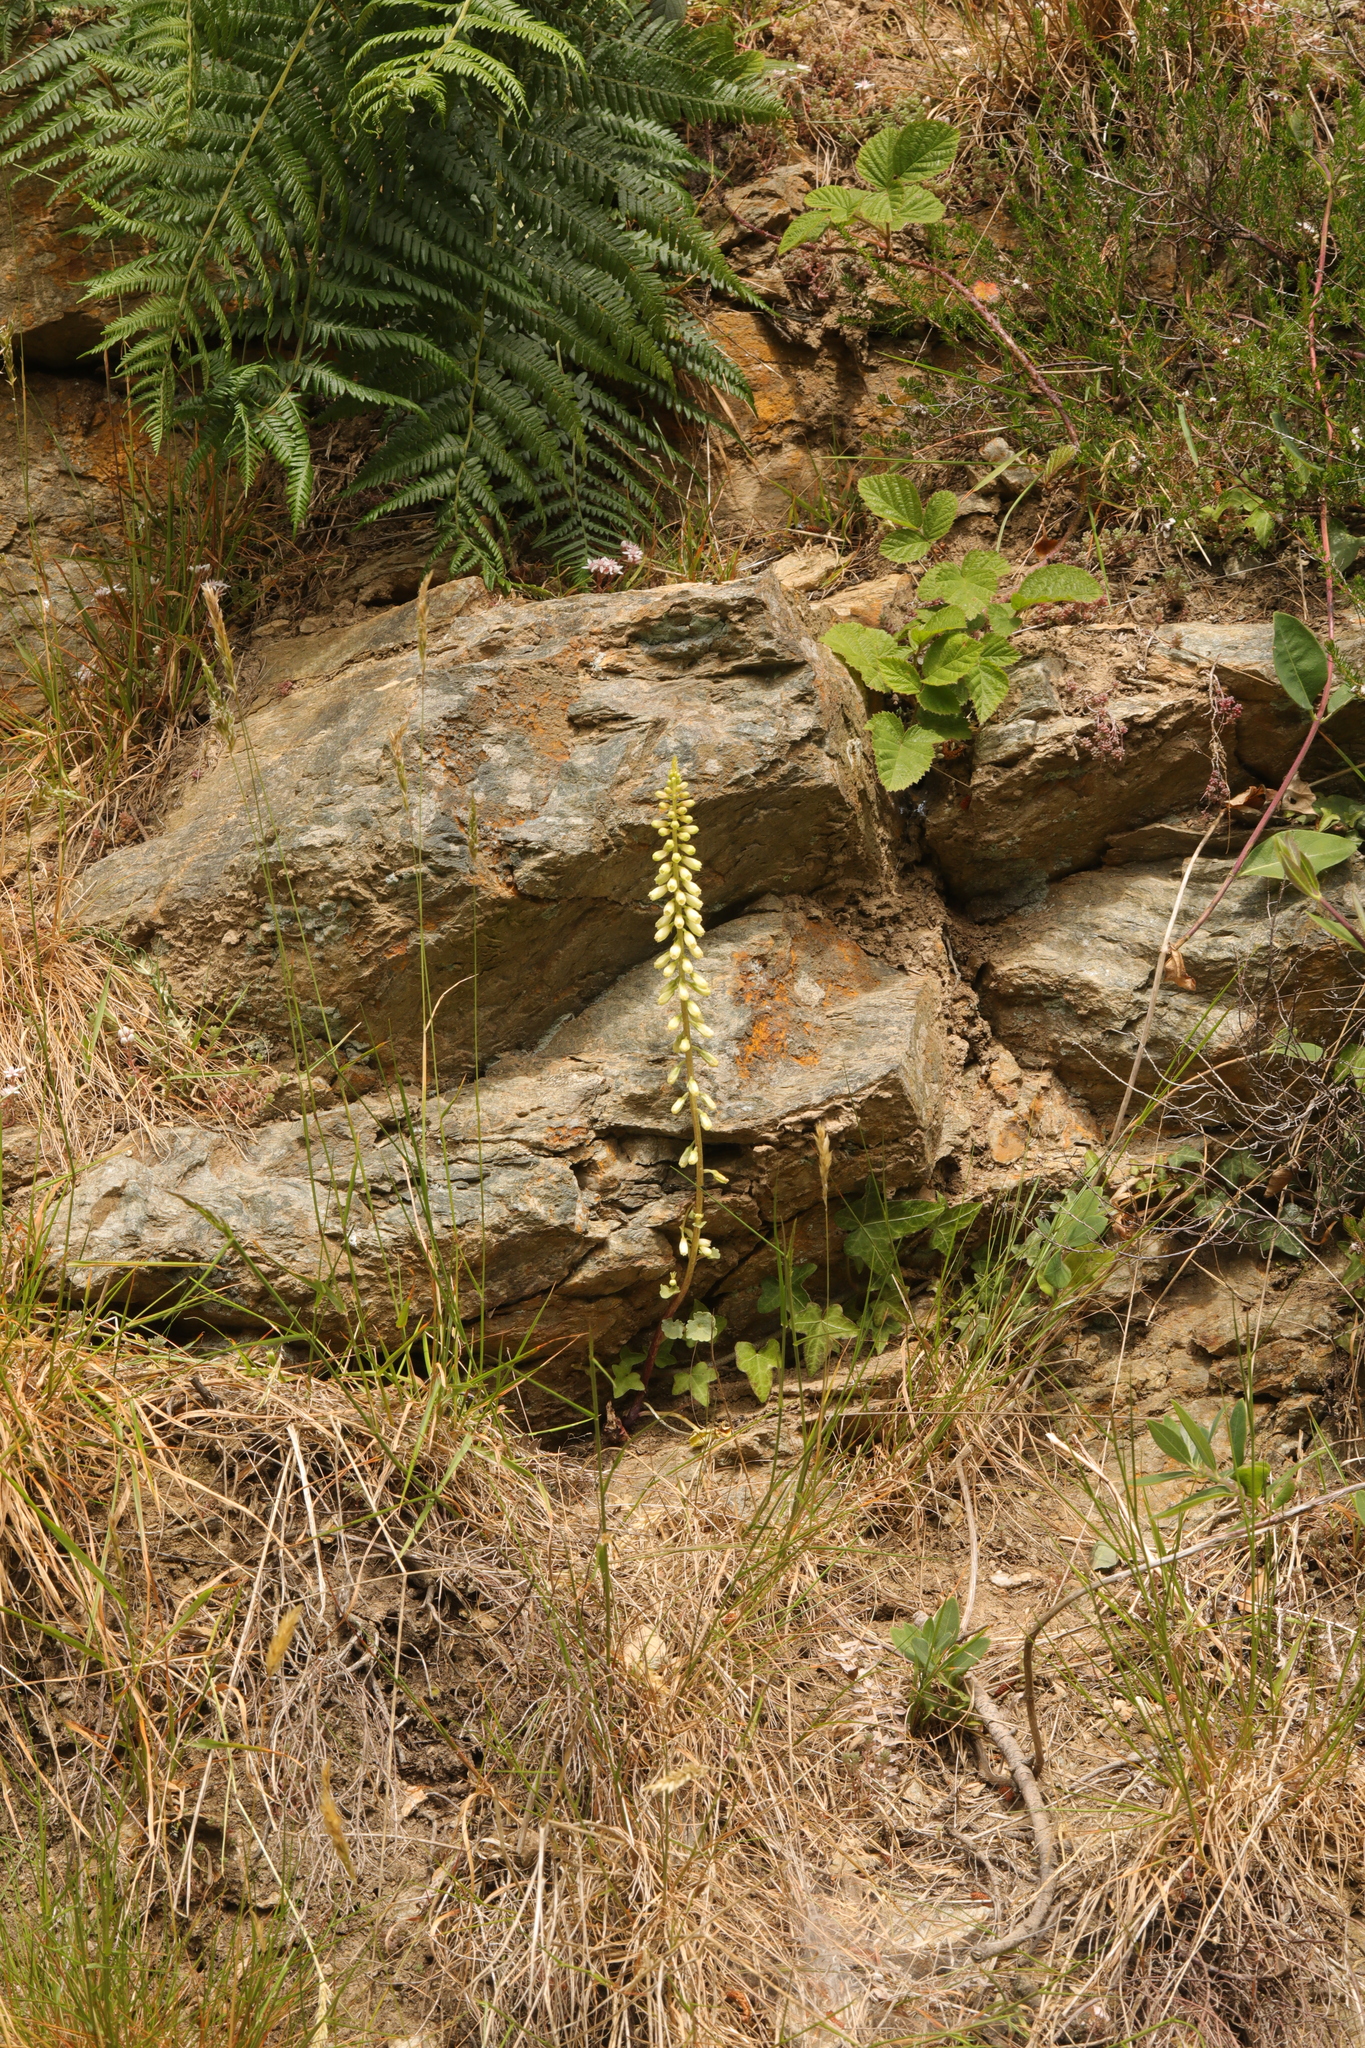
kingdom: Plantae
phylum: Tracheophyta
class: Magnoliopsida
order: Saxifragales
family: Crassulaceae
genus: Umbilicus
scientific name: Umbilicus rupestris
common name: Navelwort
